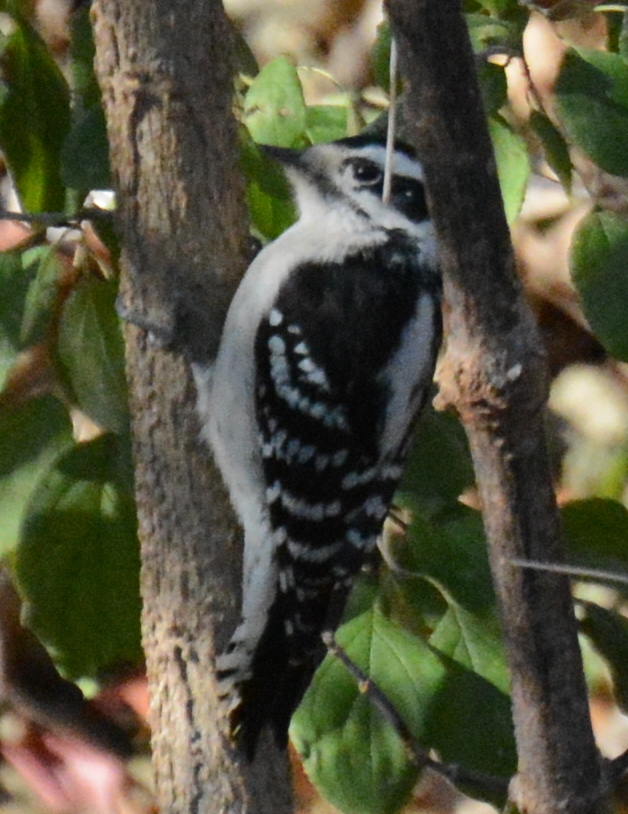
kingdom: Animalia
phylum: Chordata
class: Aves
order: Piciformes
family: Picidae
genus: Dryobates
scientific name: Dryobates pubescens
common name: Downy woodpecker
